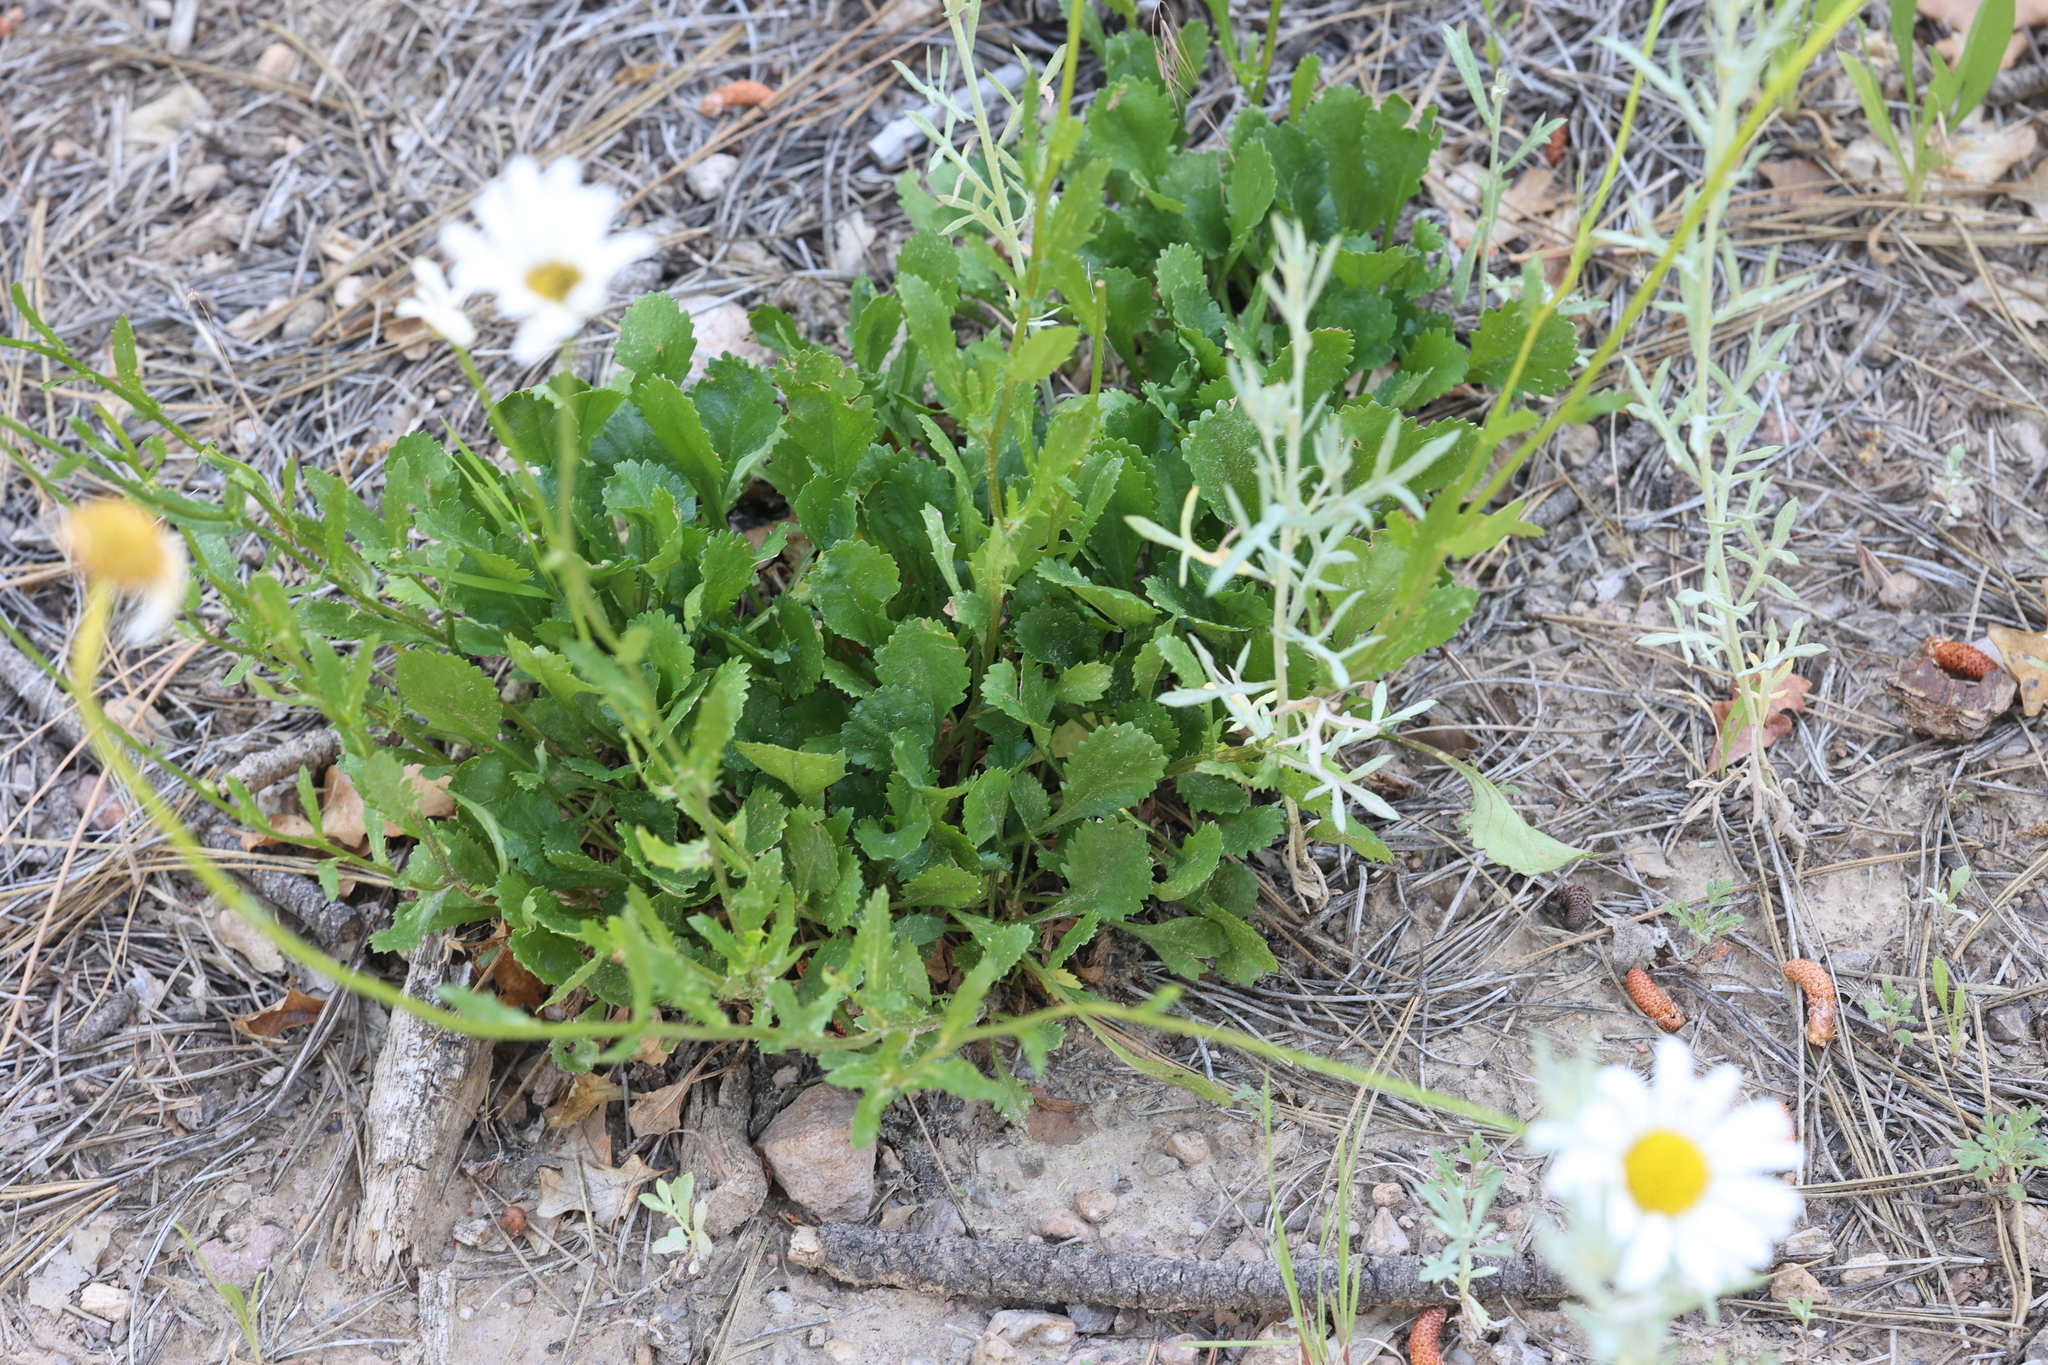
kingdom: Plantae
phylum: Tracheophyta
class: Magnoliopsida
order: Asterales
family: Asteraceae
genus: Leucanthemum
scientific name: Leucanthemum vulgare
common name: Oxeye daisy
